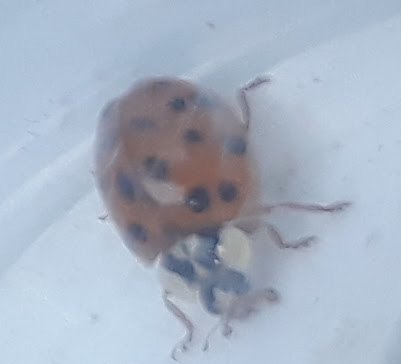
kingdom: Animalia
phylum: Arthropoda
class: Insecta
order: Coleoptera
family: Coccinellidae
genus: Harmonia
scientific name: Harmonia axyridis
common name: Harlequin ladybird
